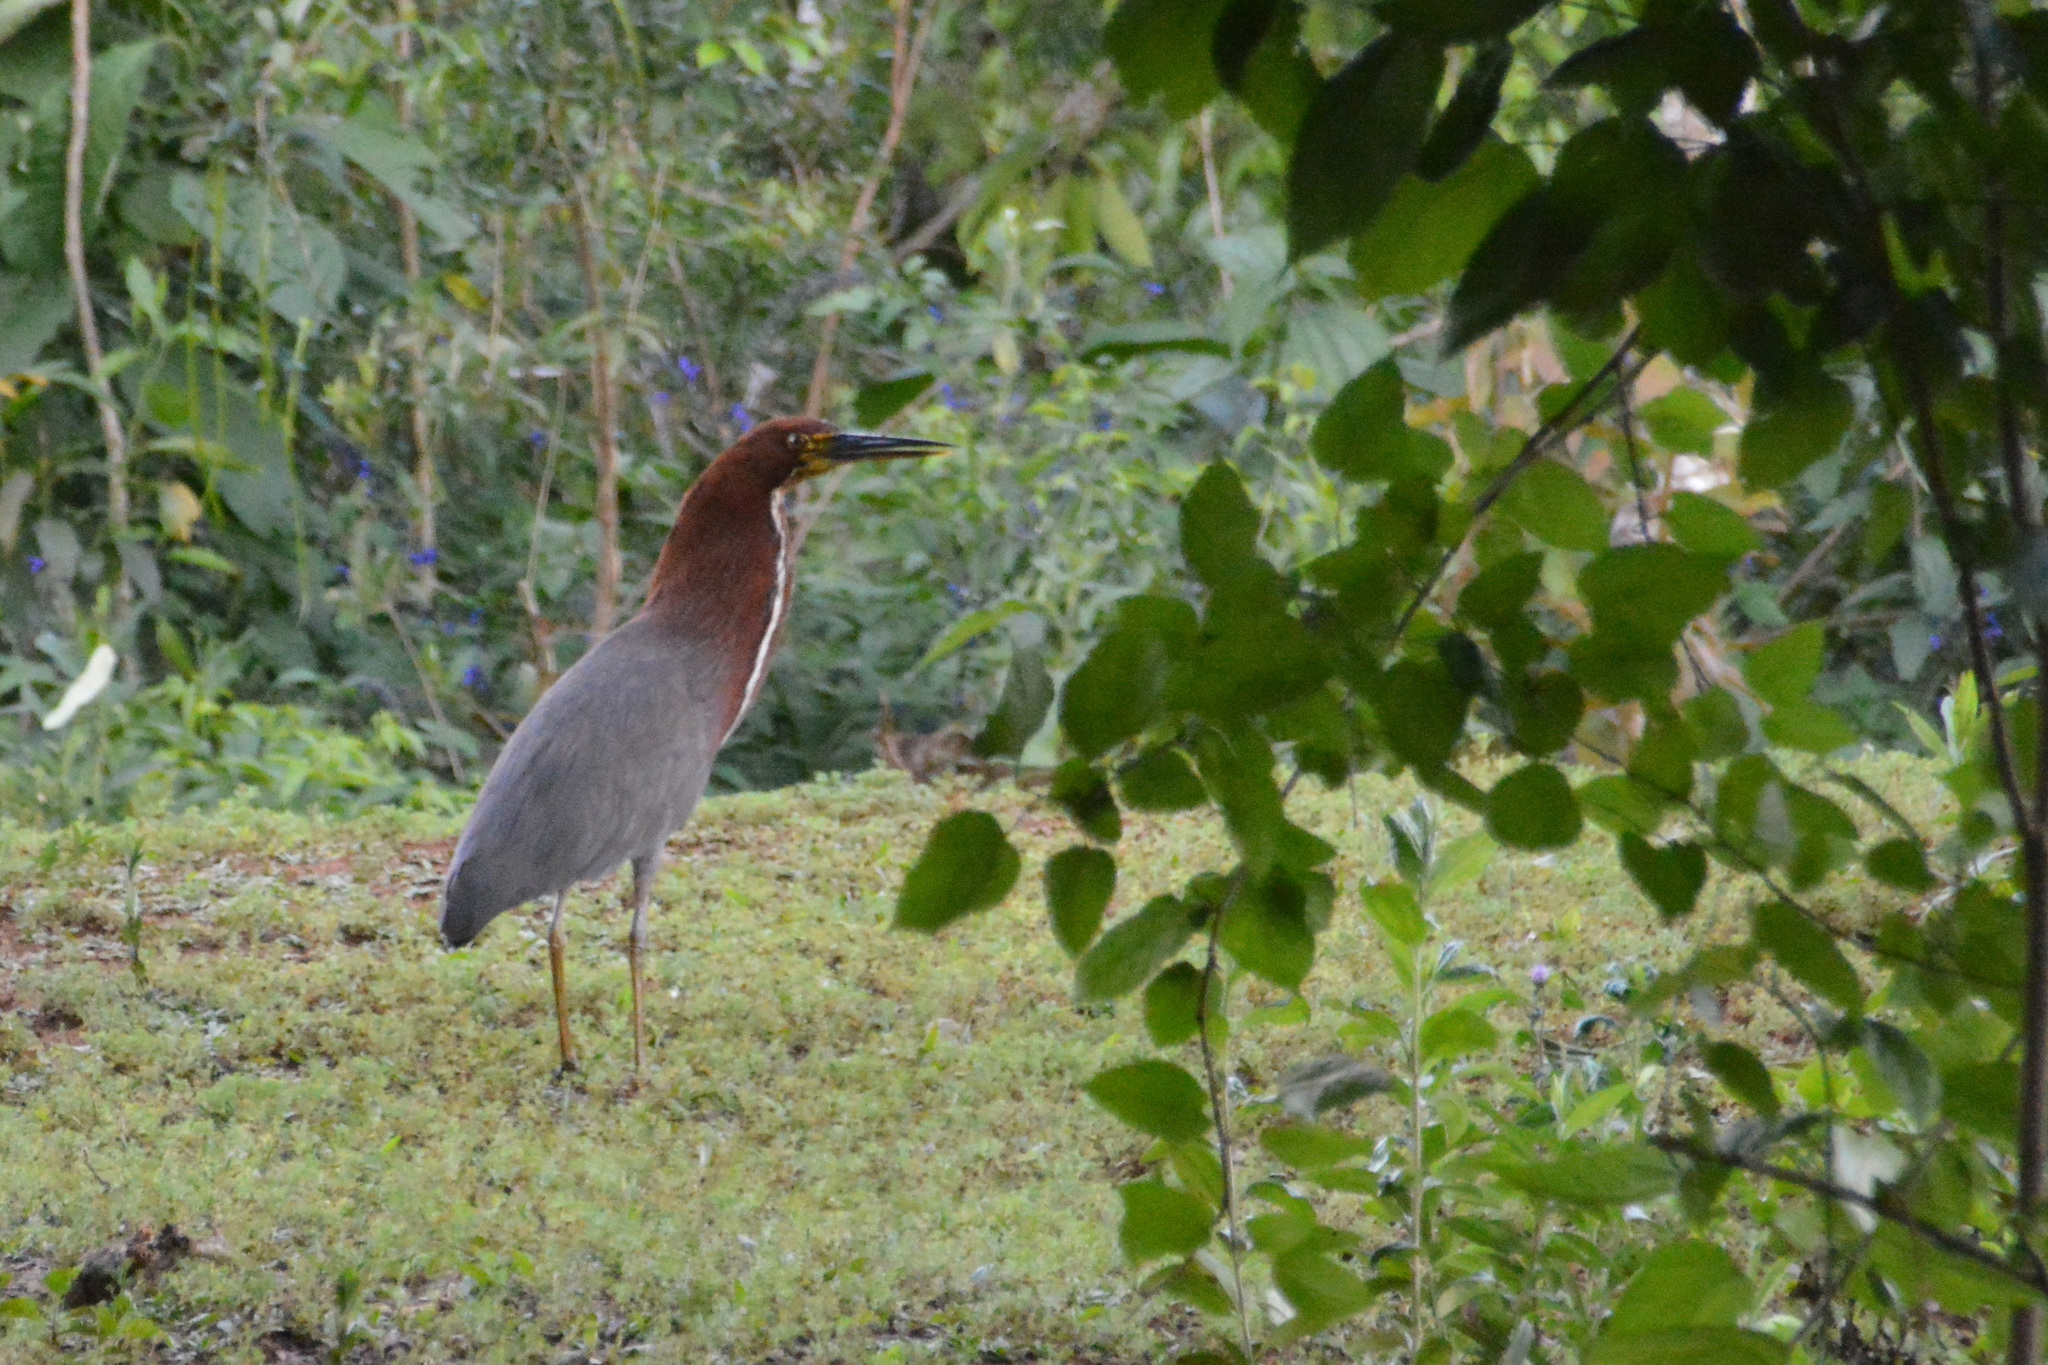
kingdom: Animalia
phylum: Chordata
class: Aves
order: Pelecaniformes
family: Ardeidae
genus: Tigrisoma
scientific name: Tigrisoma lineatum
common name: Rufescent tiger-heron
